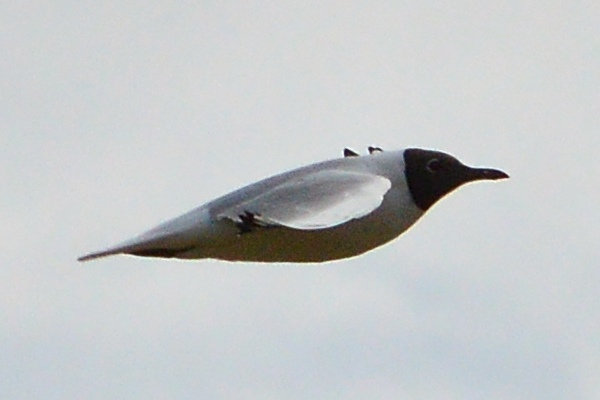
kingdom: Animalia
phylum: Chordata
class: Aves
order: Charadriiformes
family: Laridae
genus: Chroicocephalus
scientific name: Chroicocephalus ridibundus
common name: Black-headed gull
